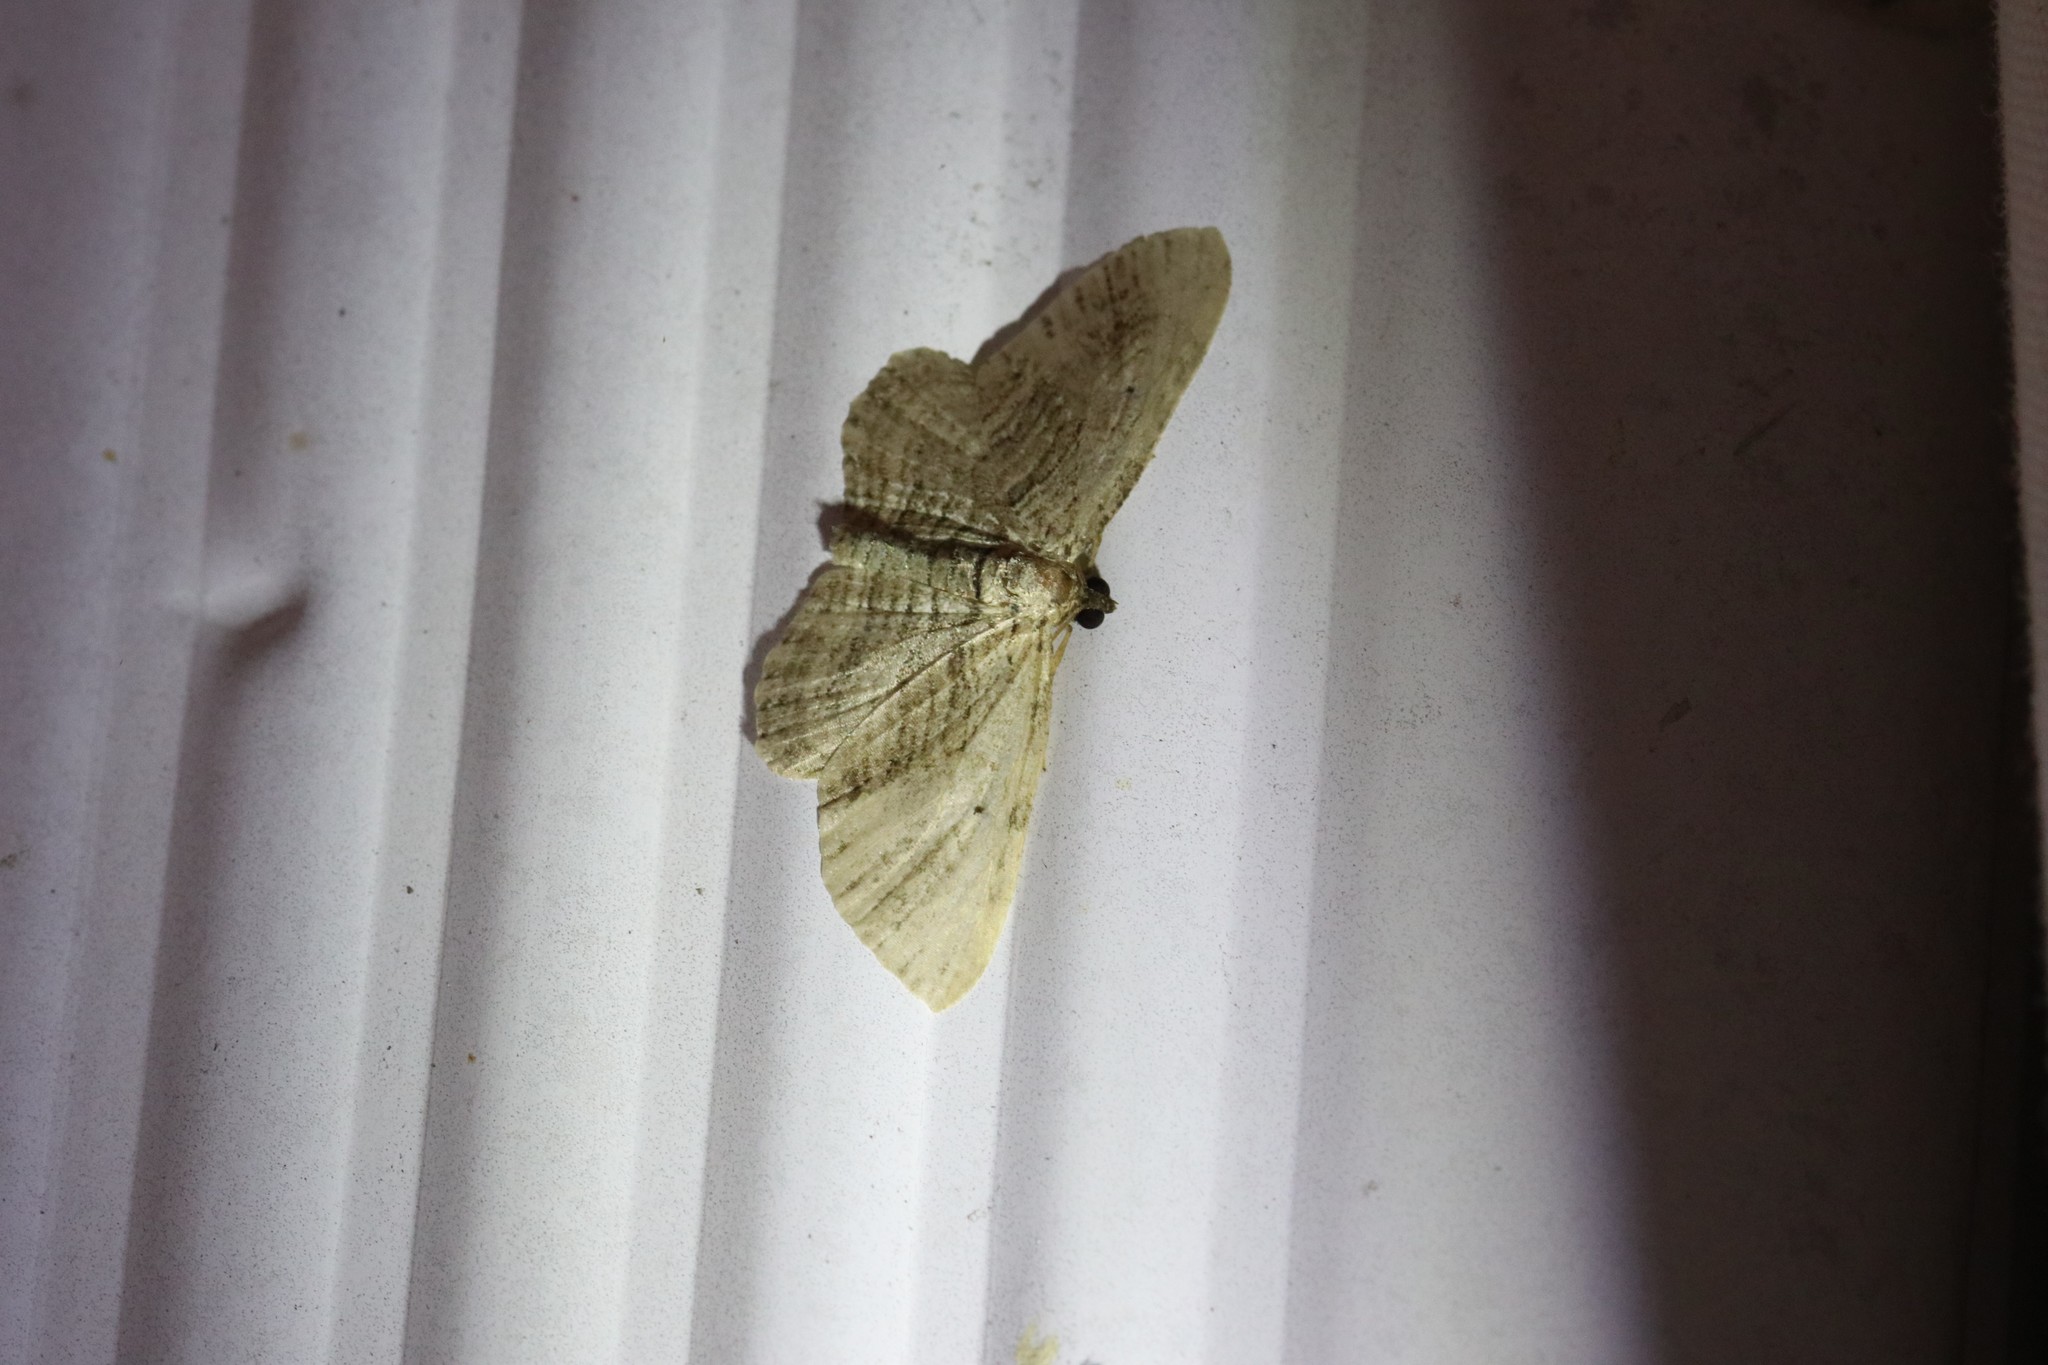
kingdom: Animalia
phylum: Arthropoda
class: Insecta
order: Lepidoptera
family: Geometridae
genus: Horisme
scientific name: Horisme intestinata
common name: Brown bark carpet
